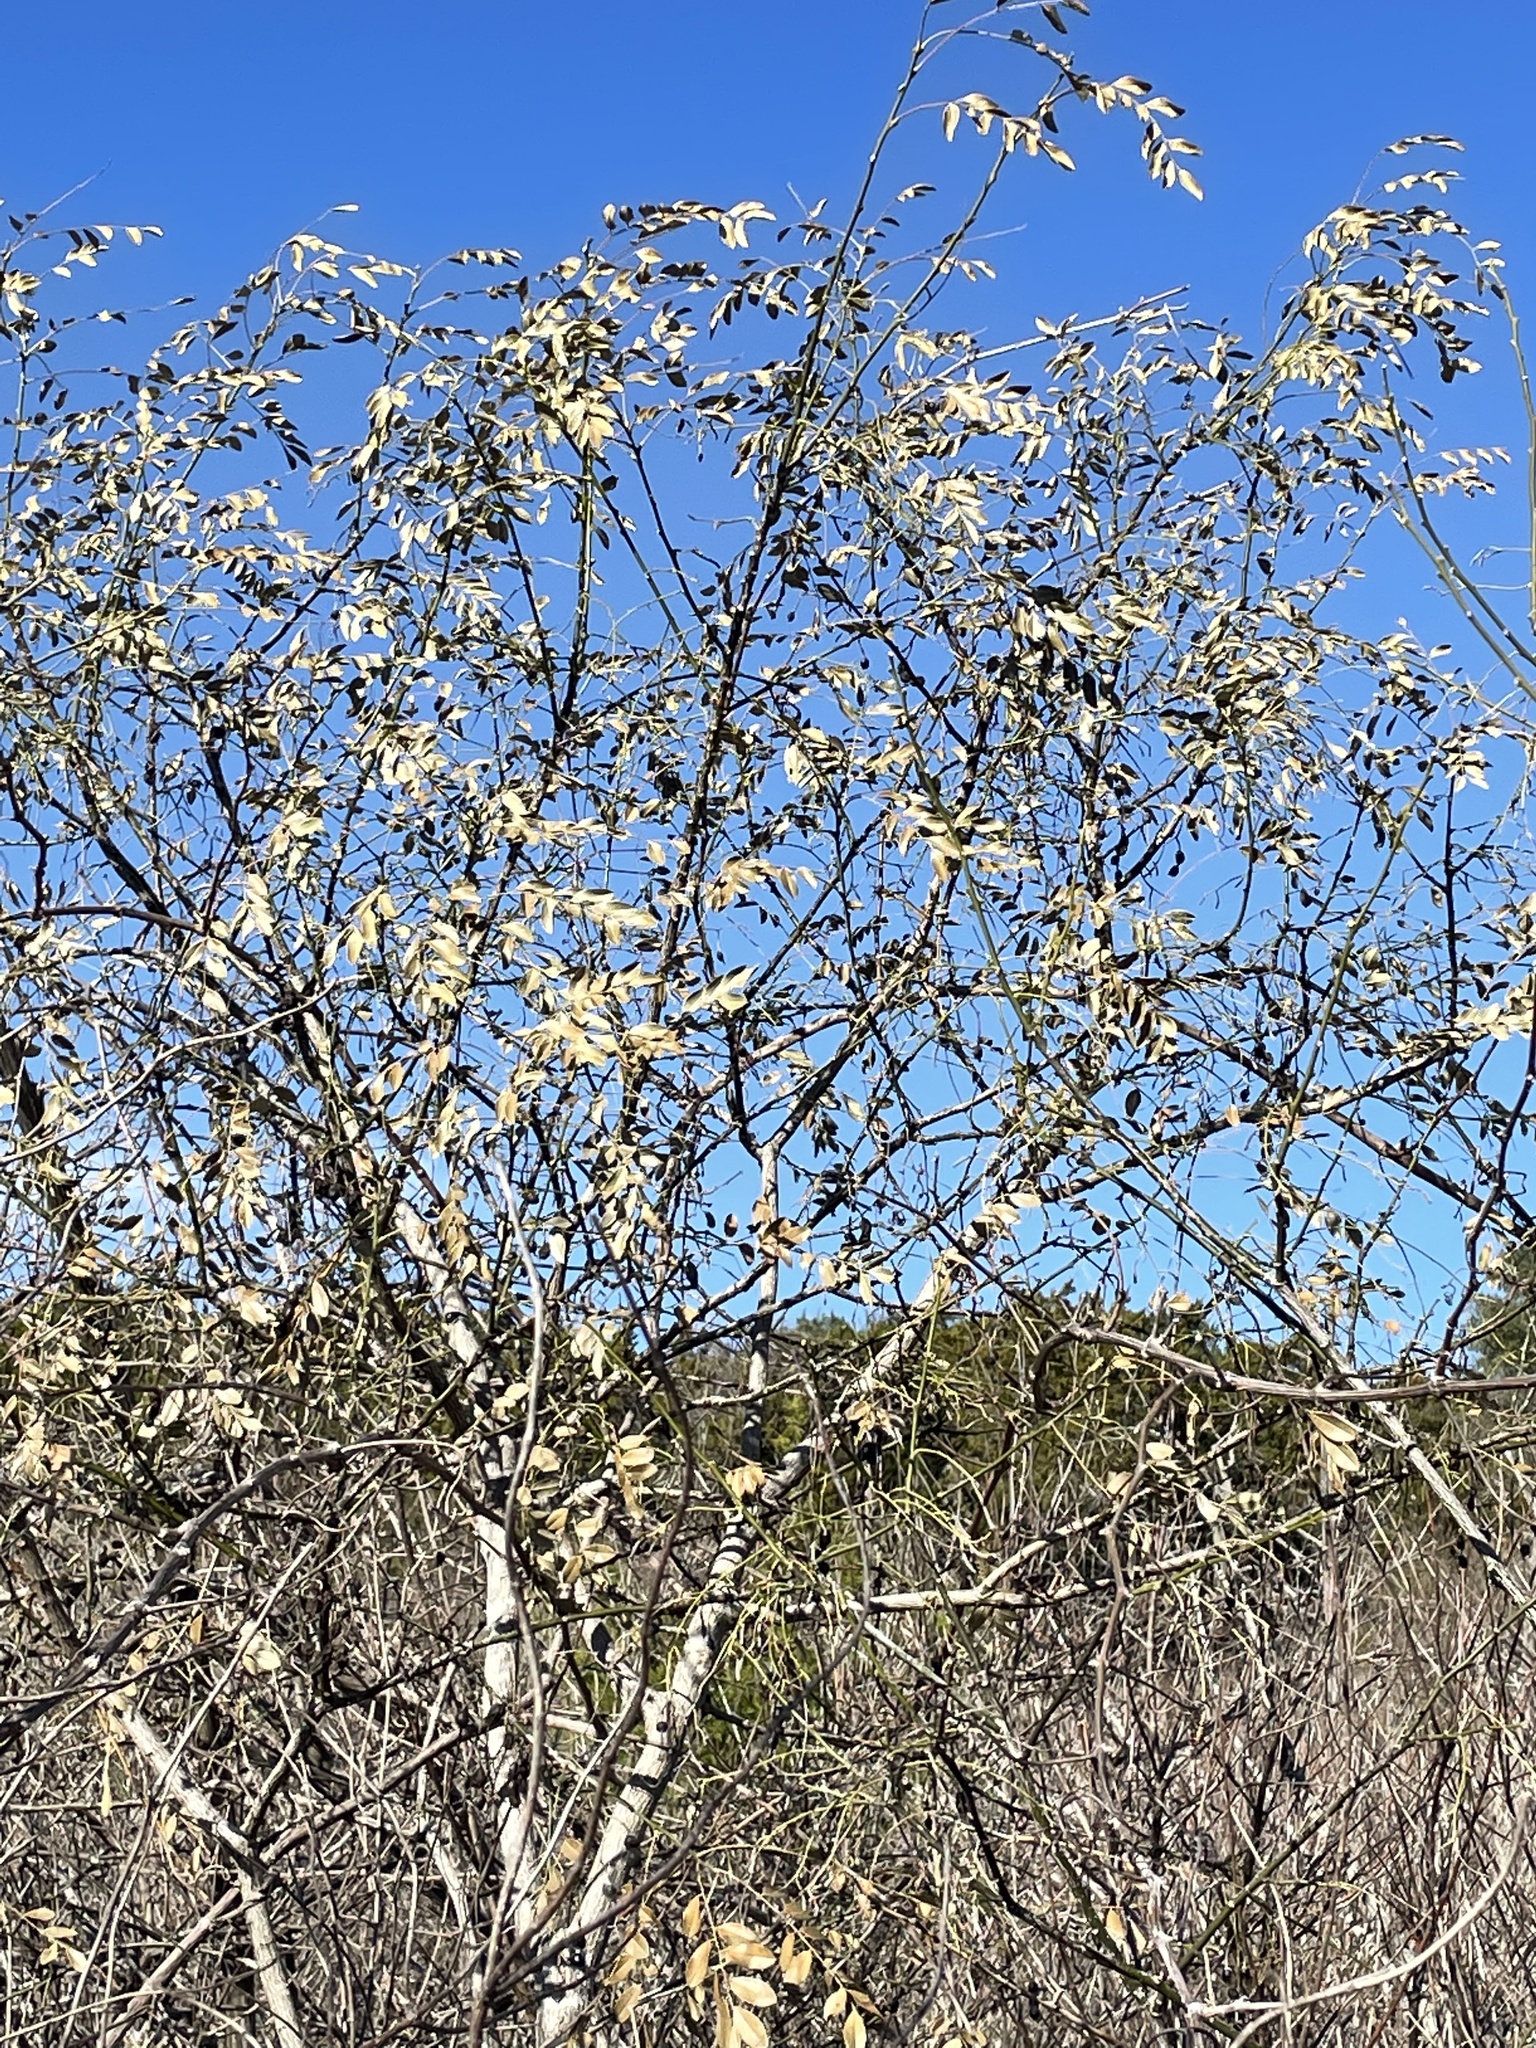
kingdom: Plantae
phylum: Tracheophyta
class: Magnoliopsida
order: Fabales
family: Fabaceae
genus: Styphnolobium
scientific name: Styphnolobium affine
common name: Texas sophora
